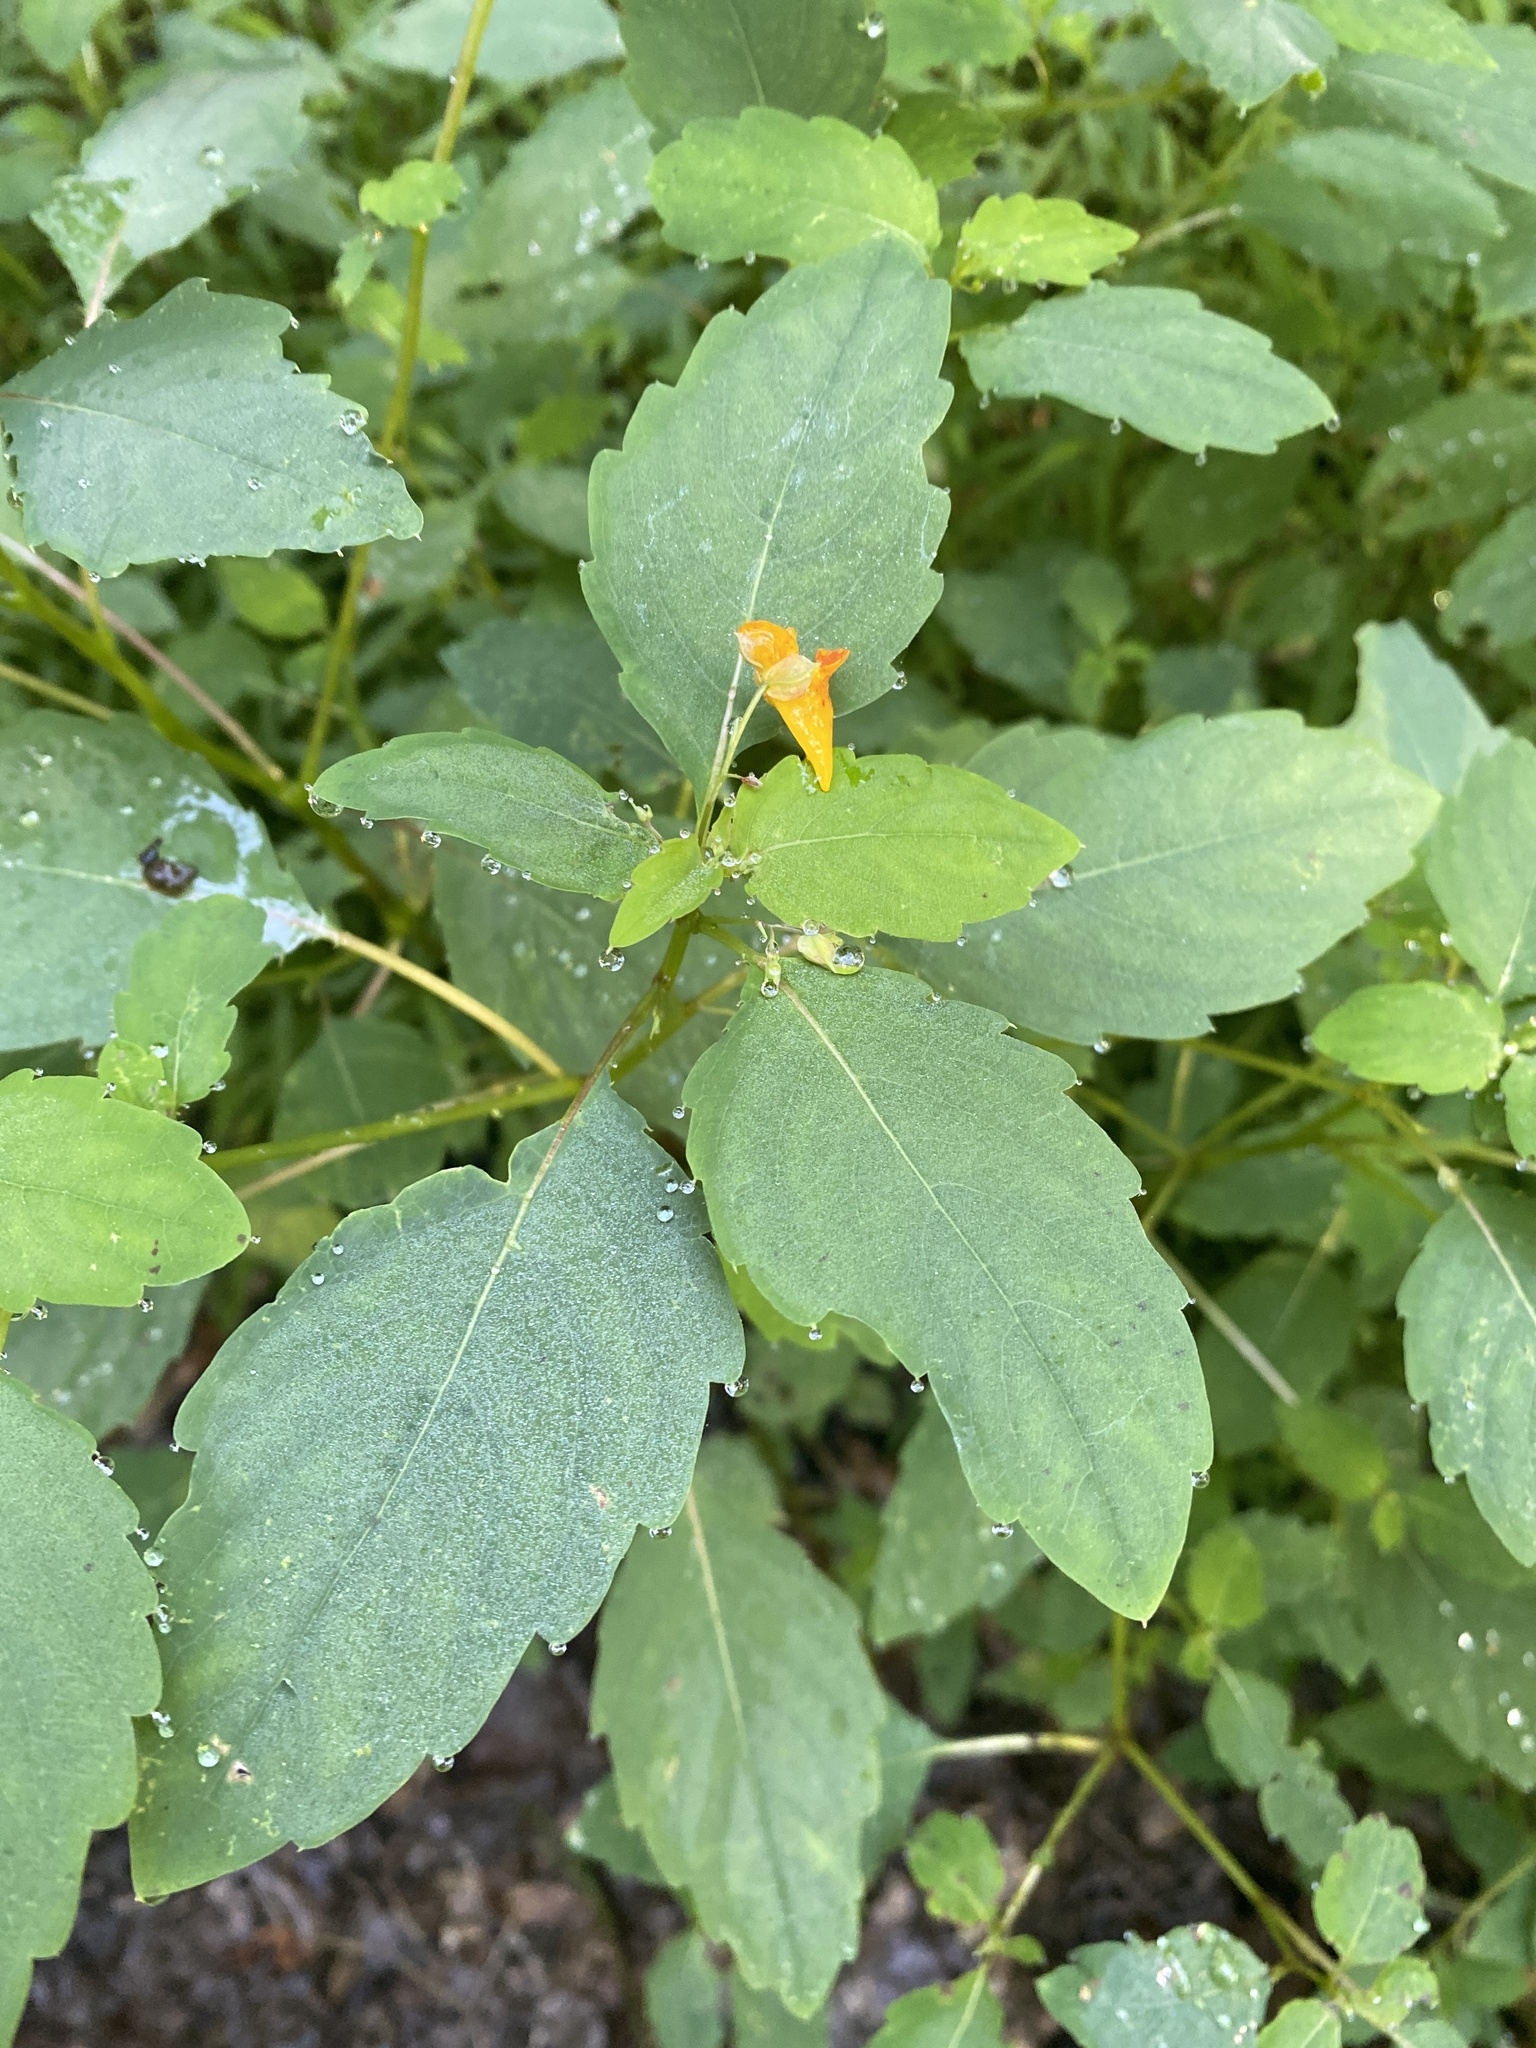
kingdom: Plantae
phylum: Tracheophyta
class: Magnoliopsida
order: Ericales
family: Balsaminaceae
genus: Impatiens
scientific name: Impatiens capensis
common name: Orange balsam
